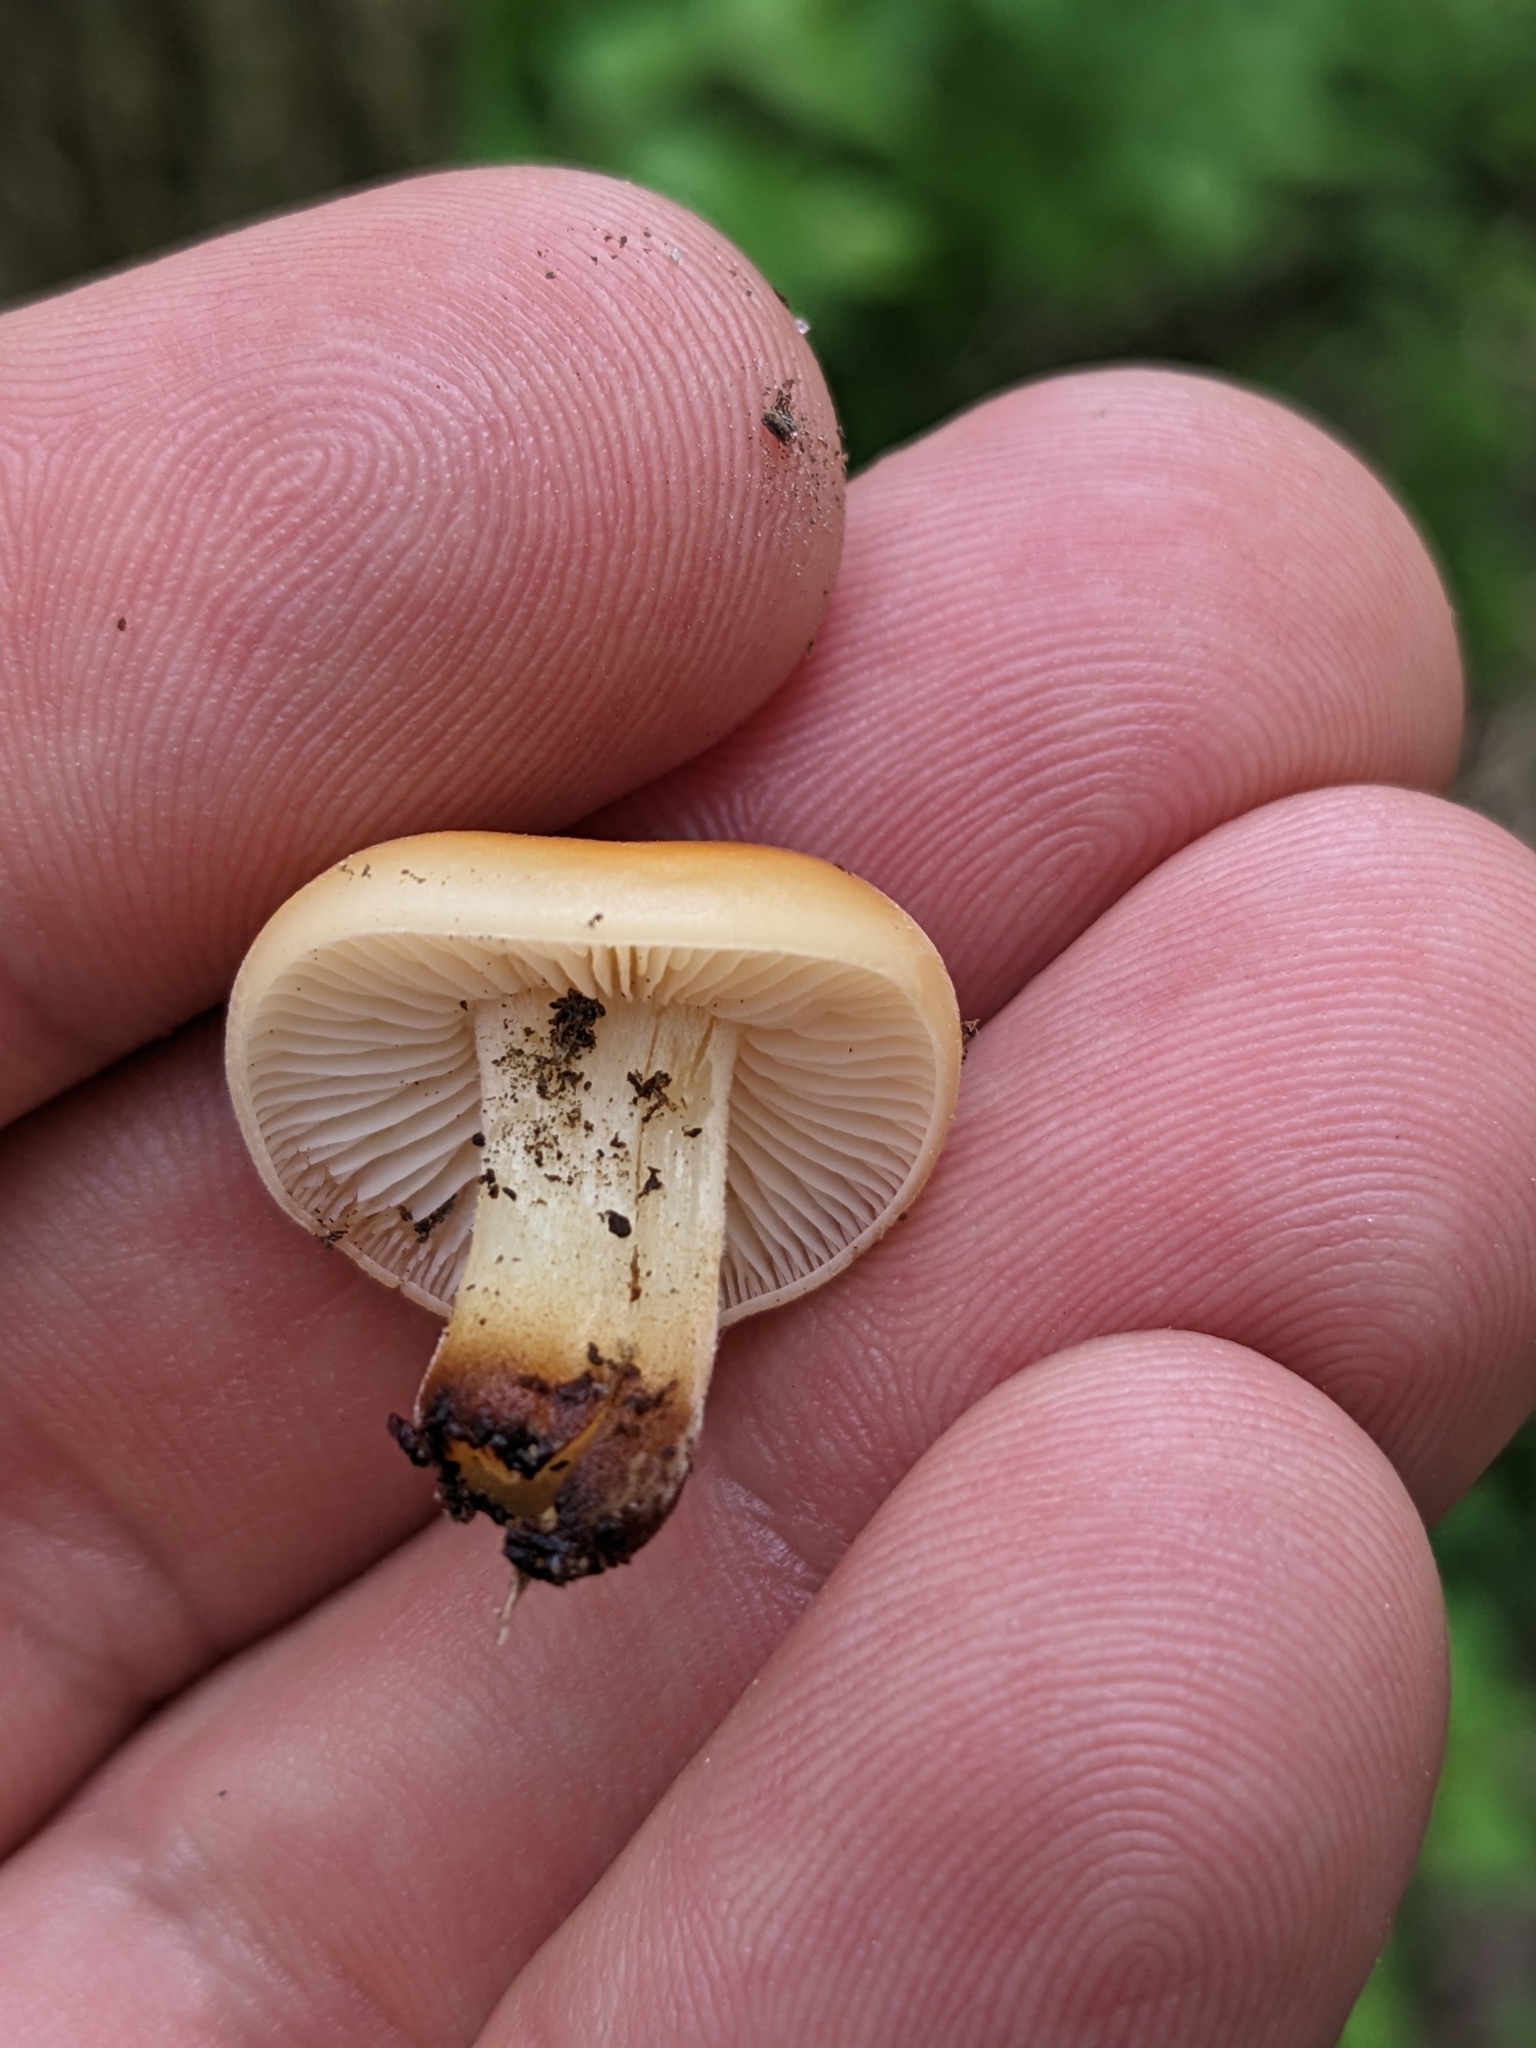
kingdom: Fungi
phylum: Basidiomycota
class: Agaricomycetes
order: Agaricales
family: Physalacriaceae
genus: Flammulina
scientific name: Flammulina velutipes
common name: Velvet shank
